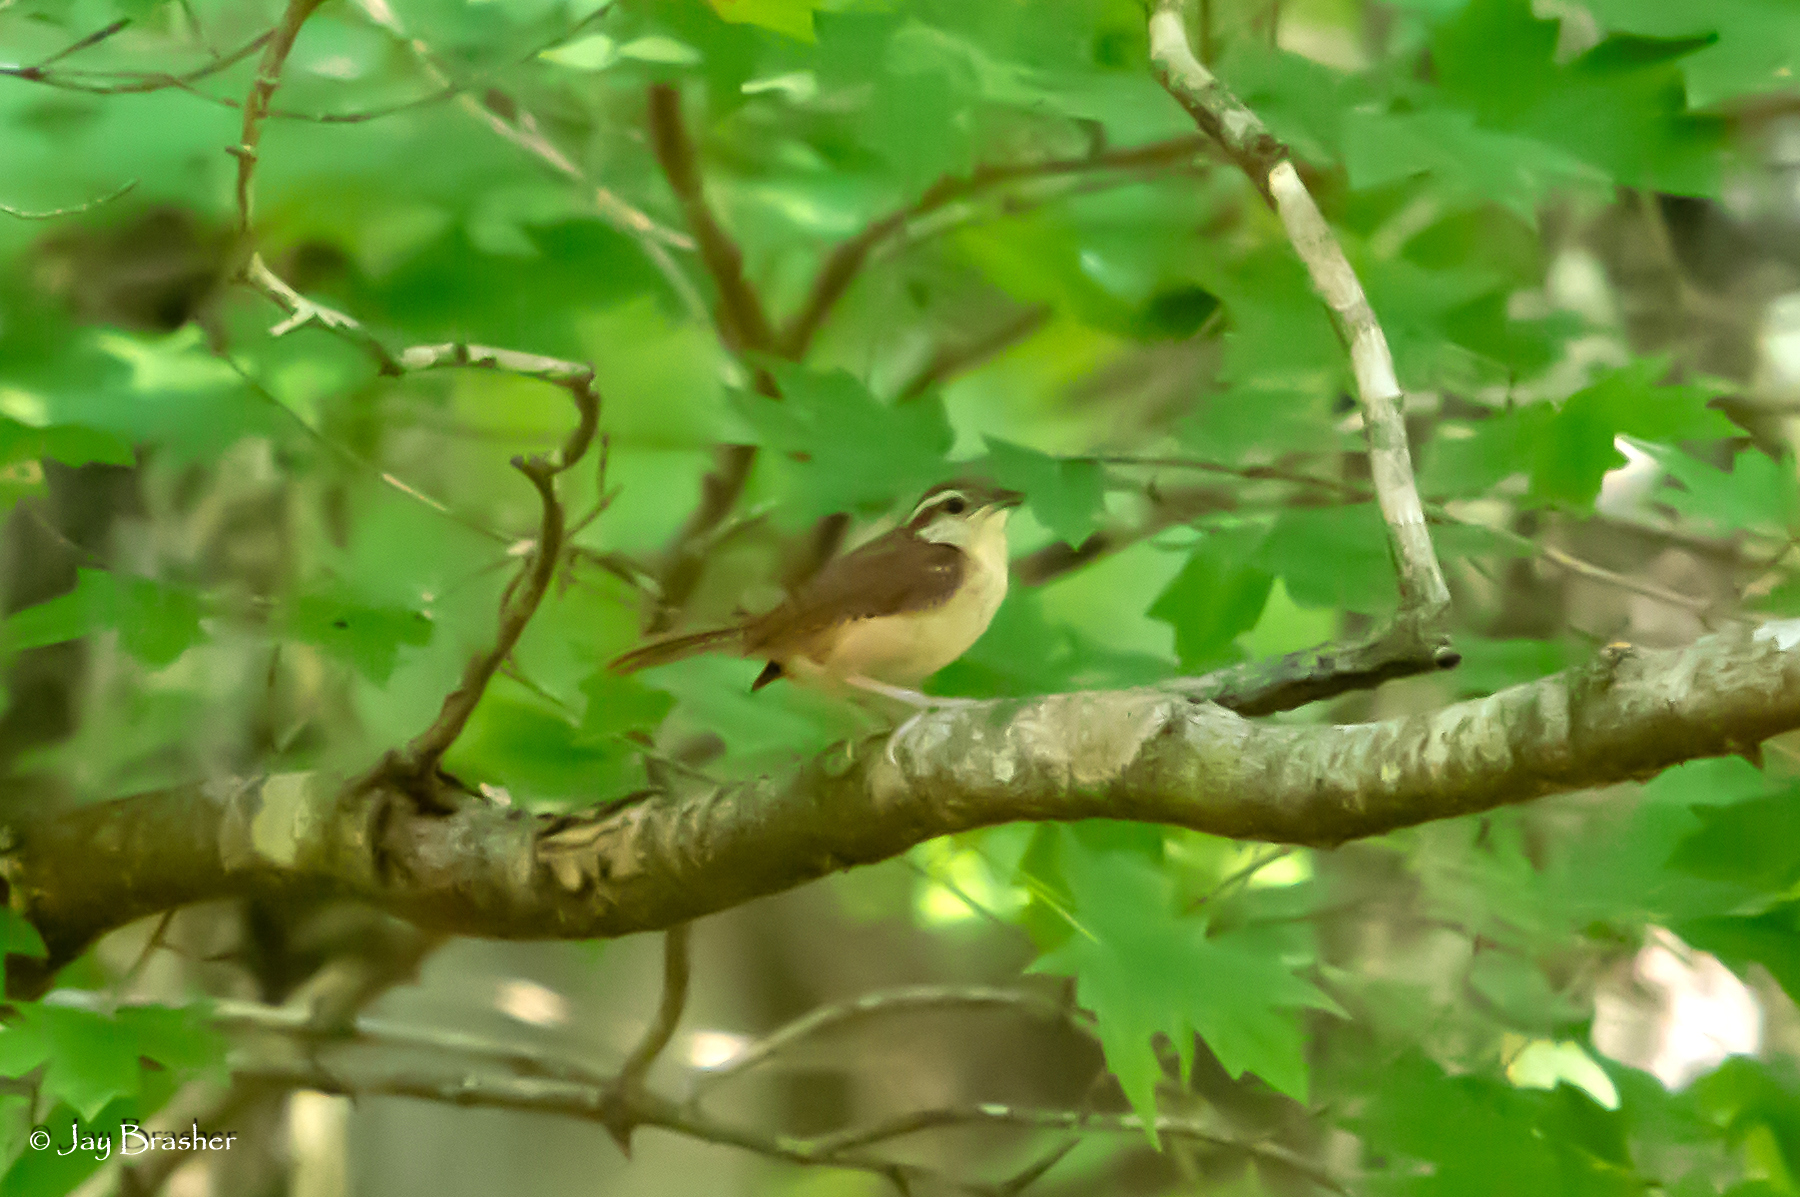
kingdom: Animalia
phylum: Chordata
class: Aves
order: Passeriformes
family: Troglodytidae
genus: Thryothorus
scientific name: Thryothorus ludovicianus
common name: Carolina wren
